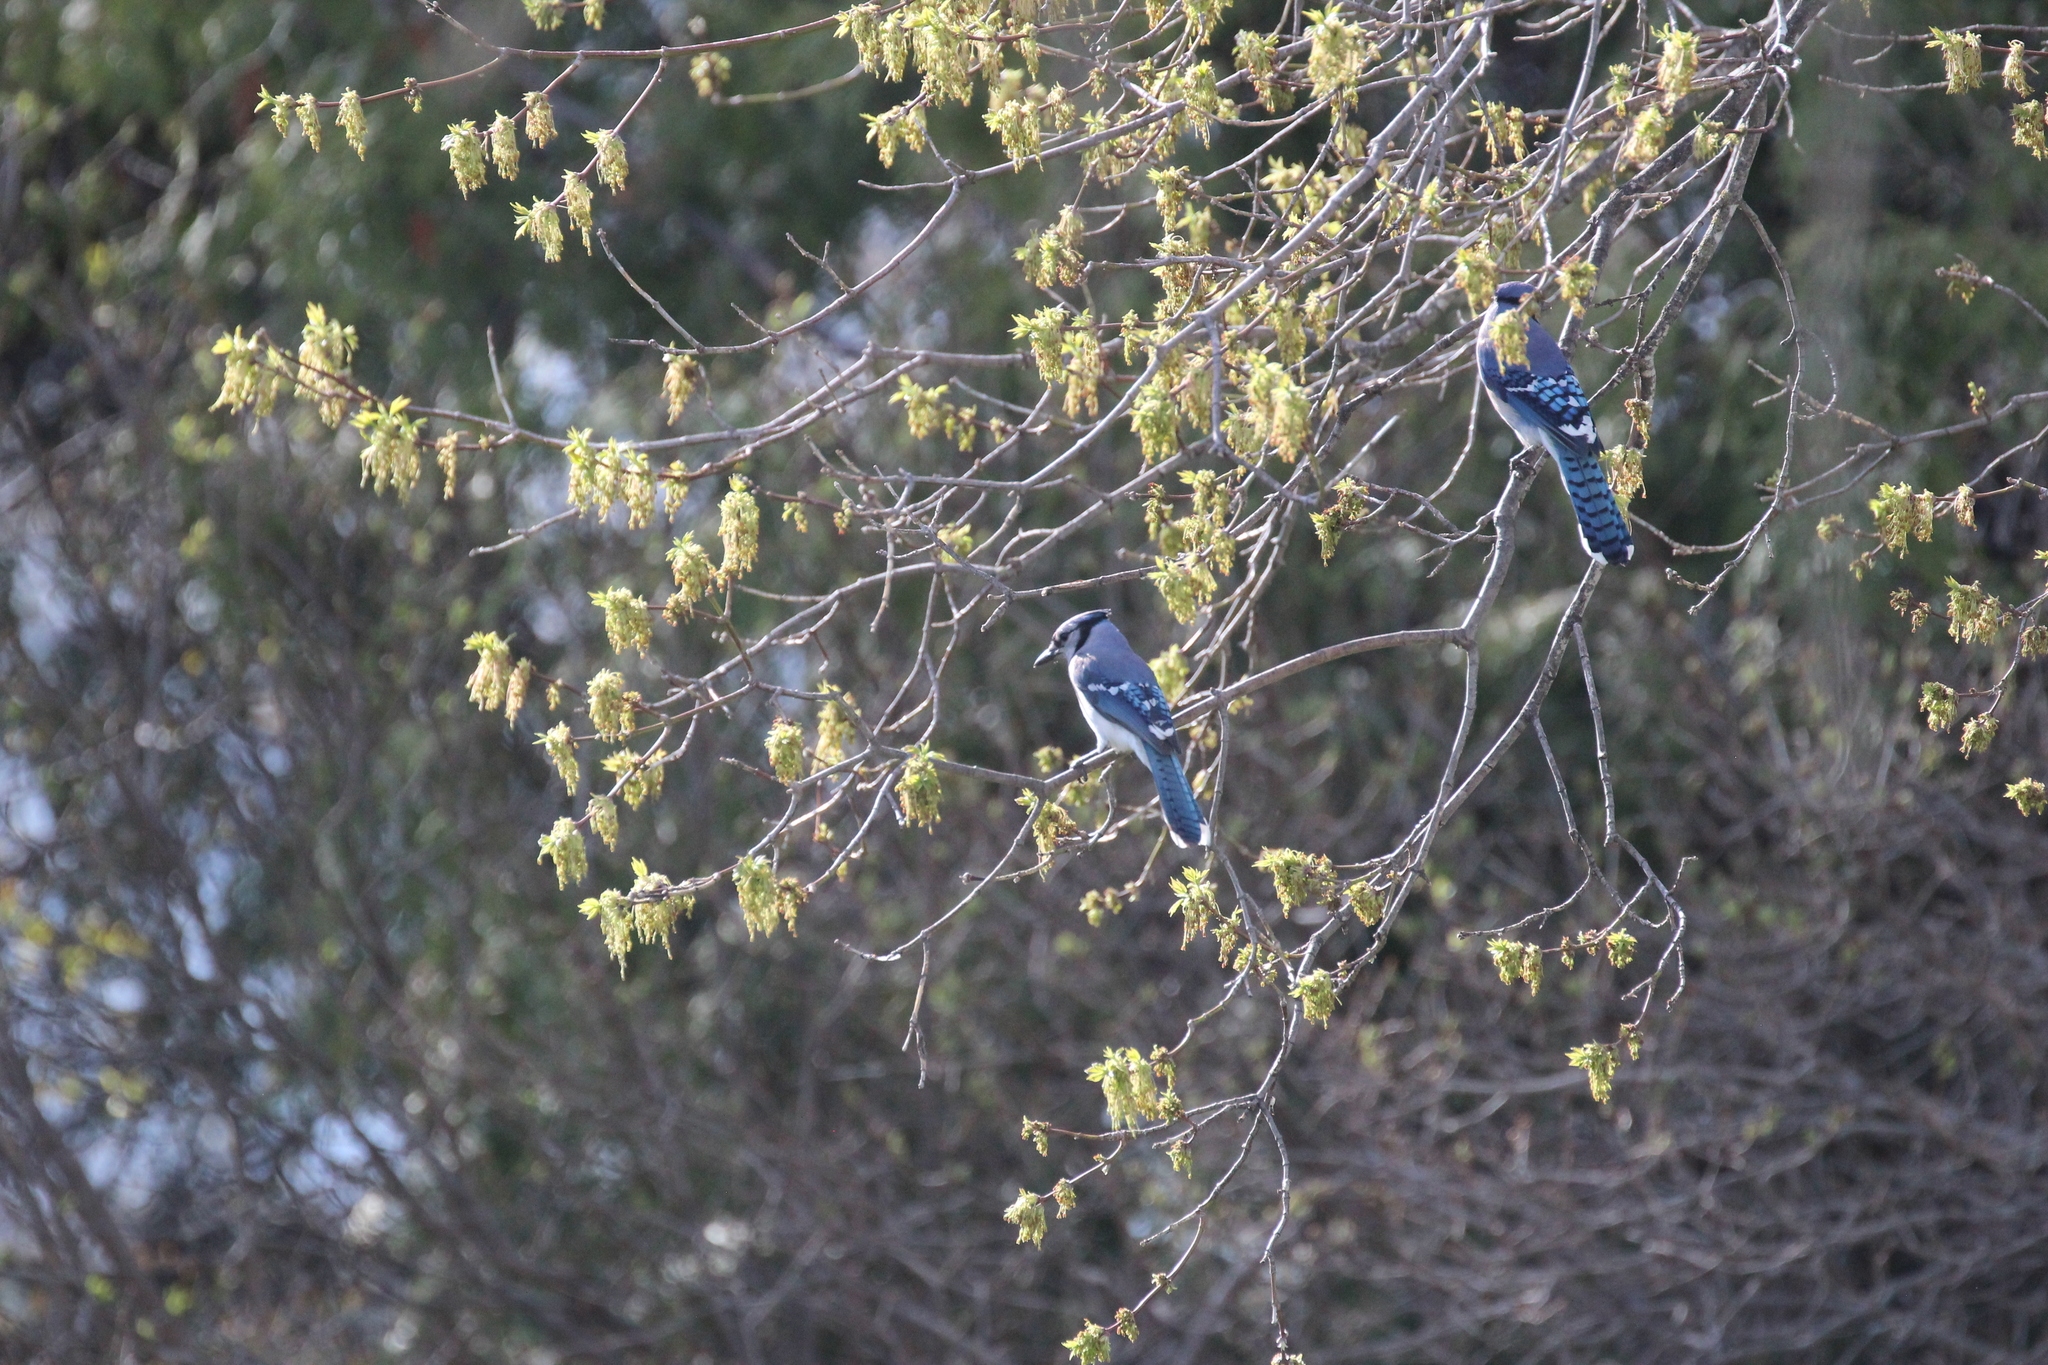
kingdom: Animalia
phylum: Chordata
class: Aves
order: Passeriformes
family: Corvidae
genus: Cyanocitta
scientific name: Cyanocitta cristata
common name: Blue jay
